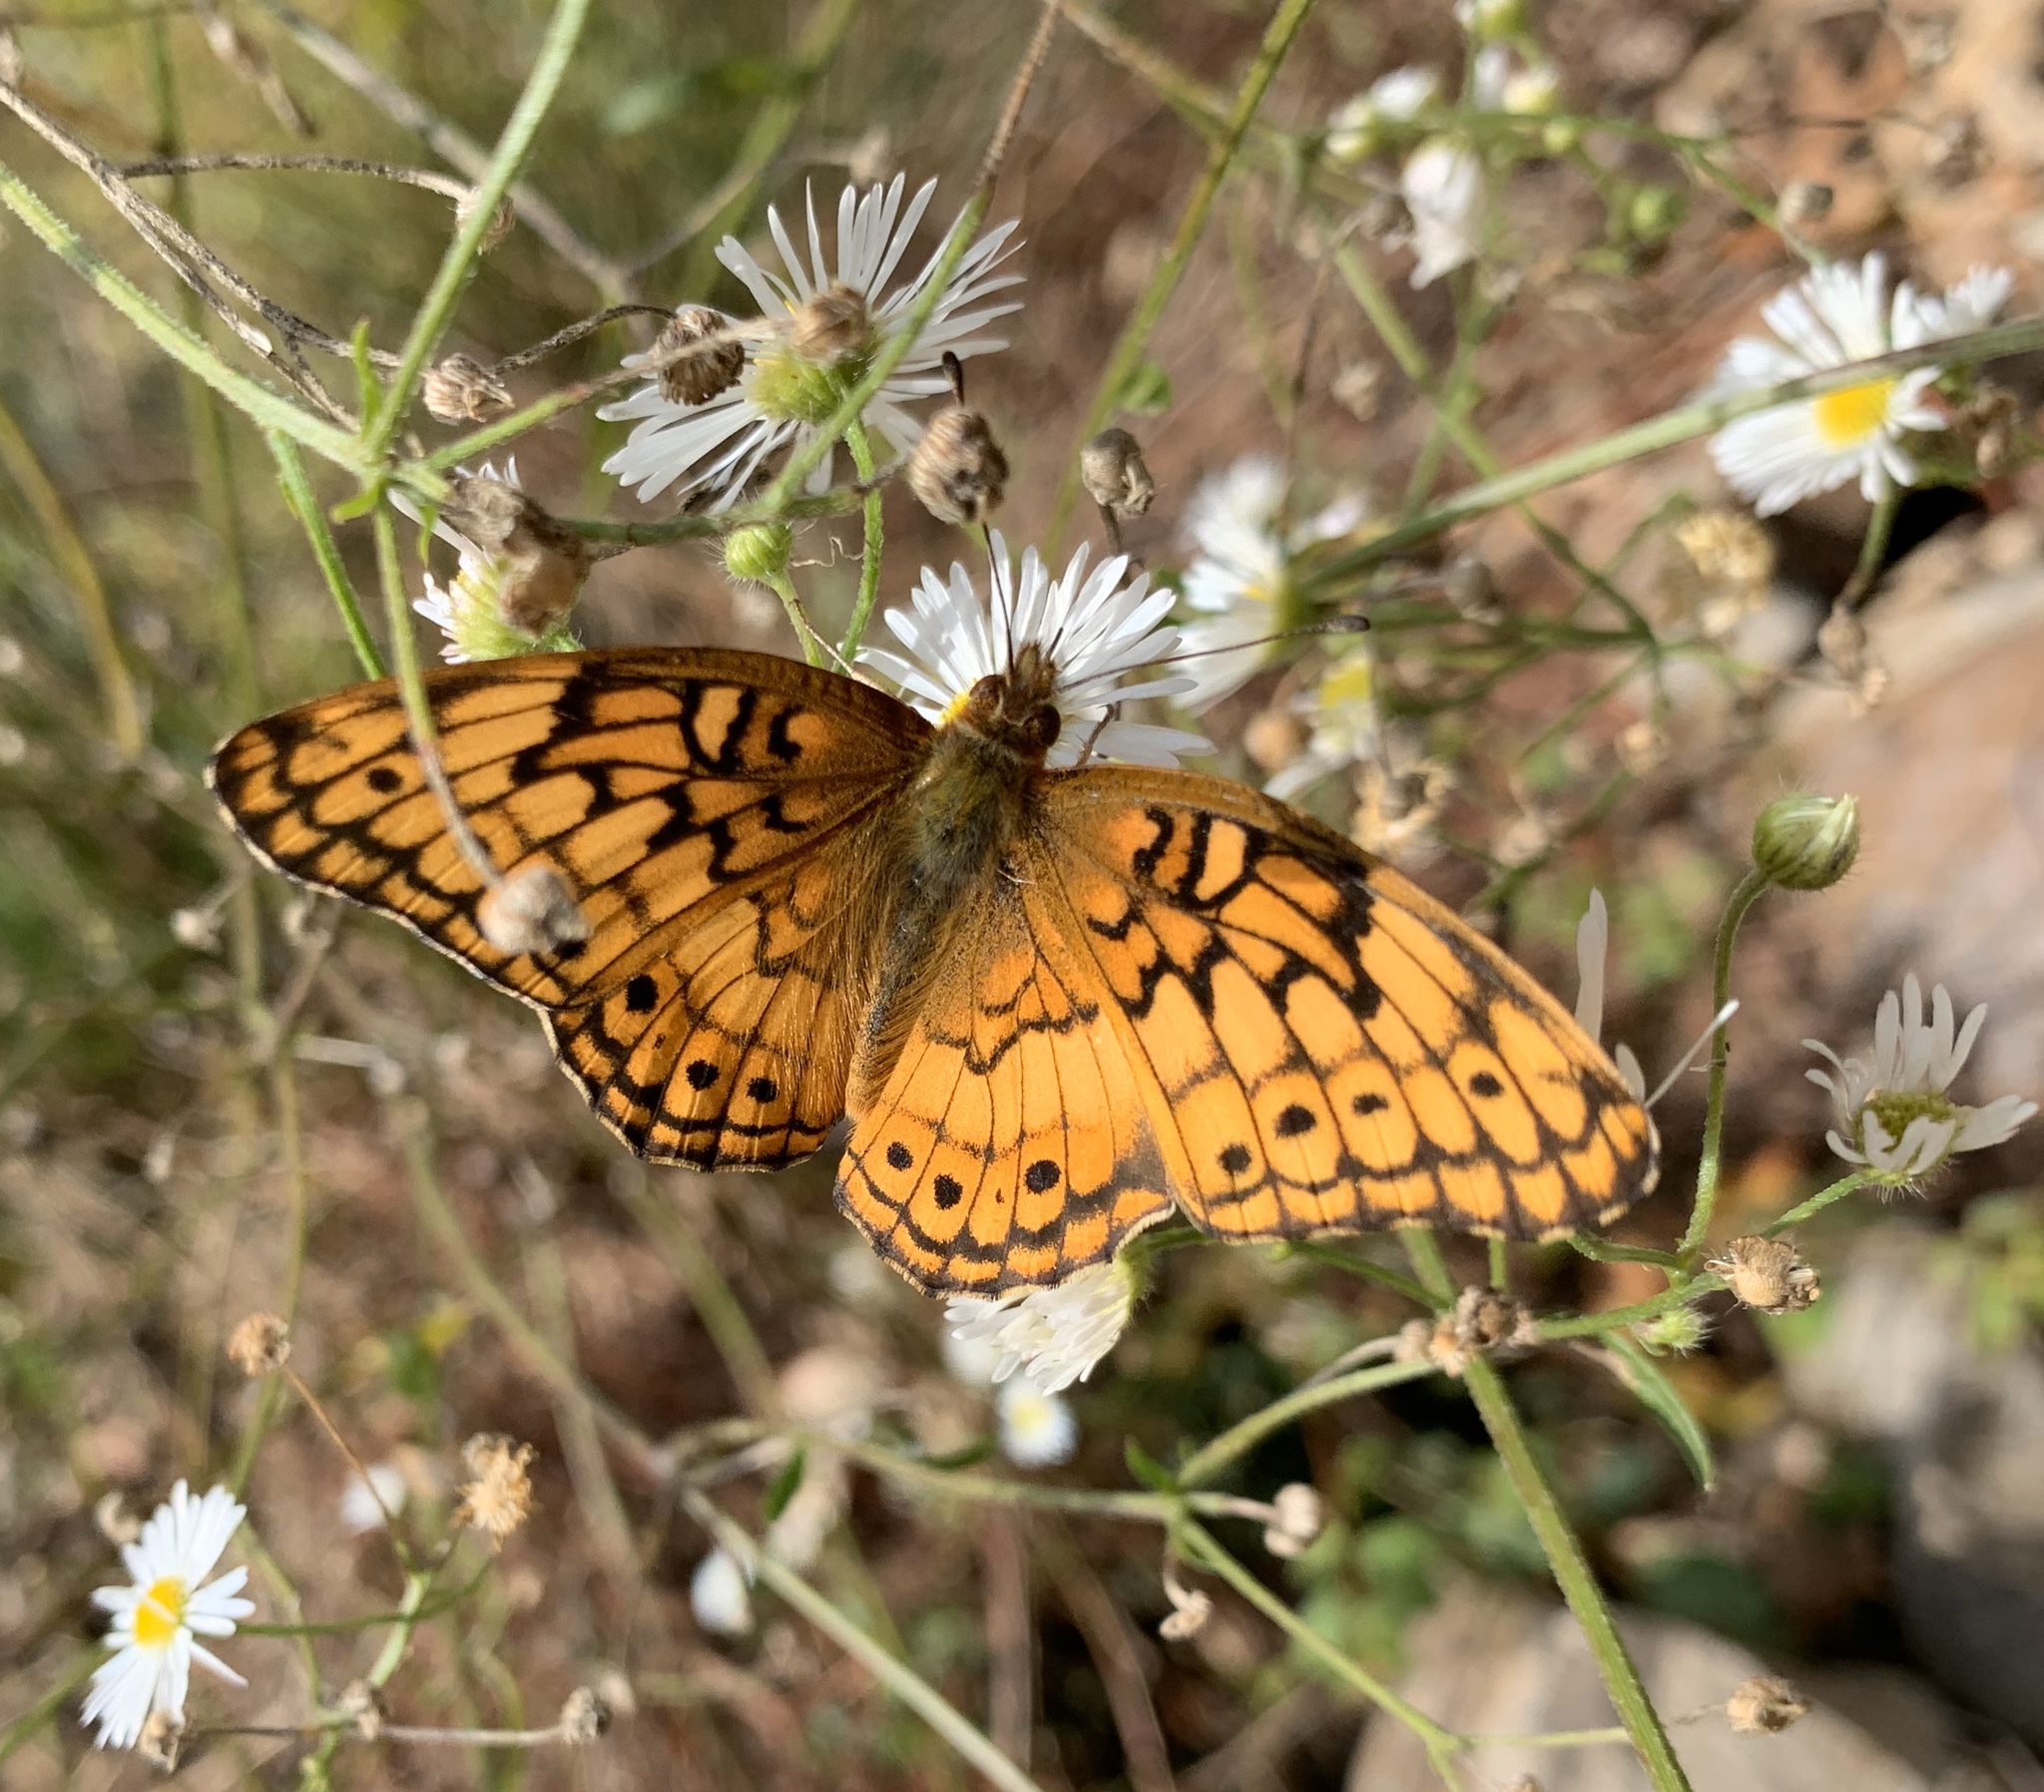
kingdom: Animalia
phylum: Arthropoda
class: Insecta
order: Lepidoptera
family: Nymphalidae
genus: Euptoieta
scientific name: Euptoieta claudia
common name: Variegated fritillary
